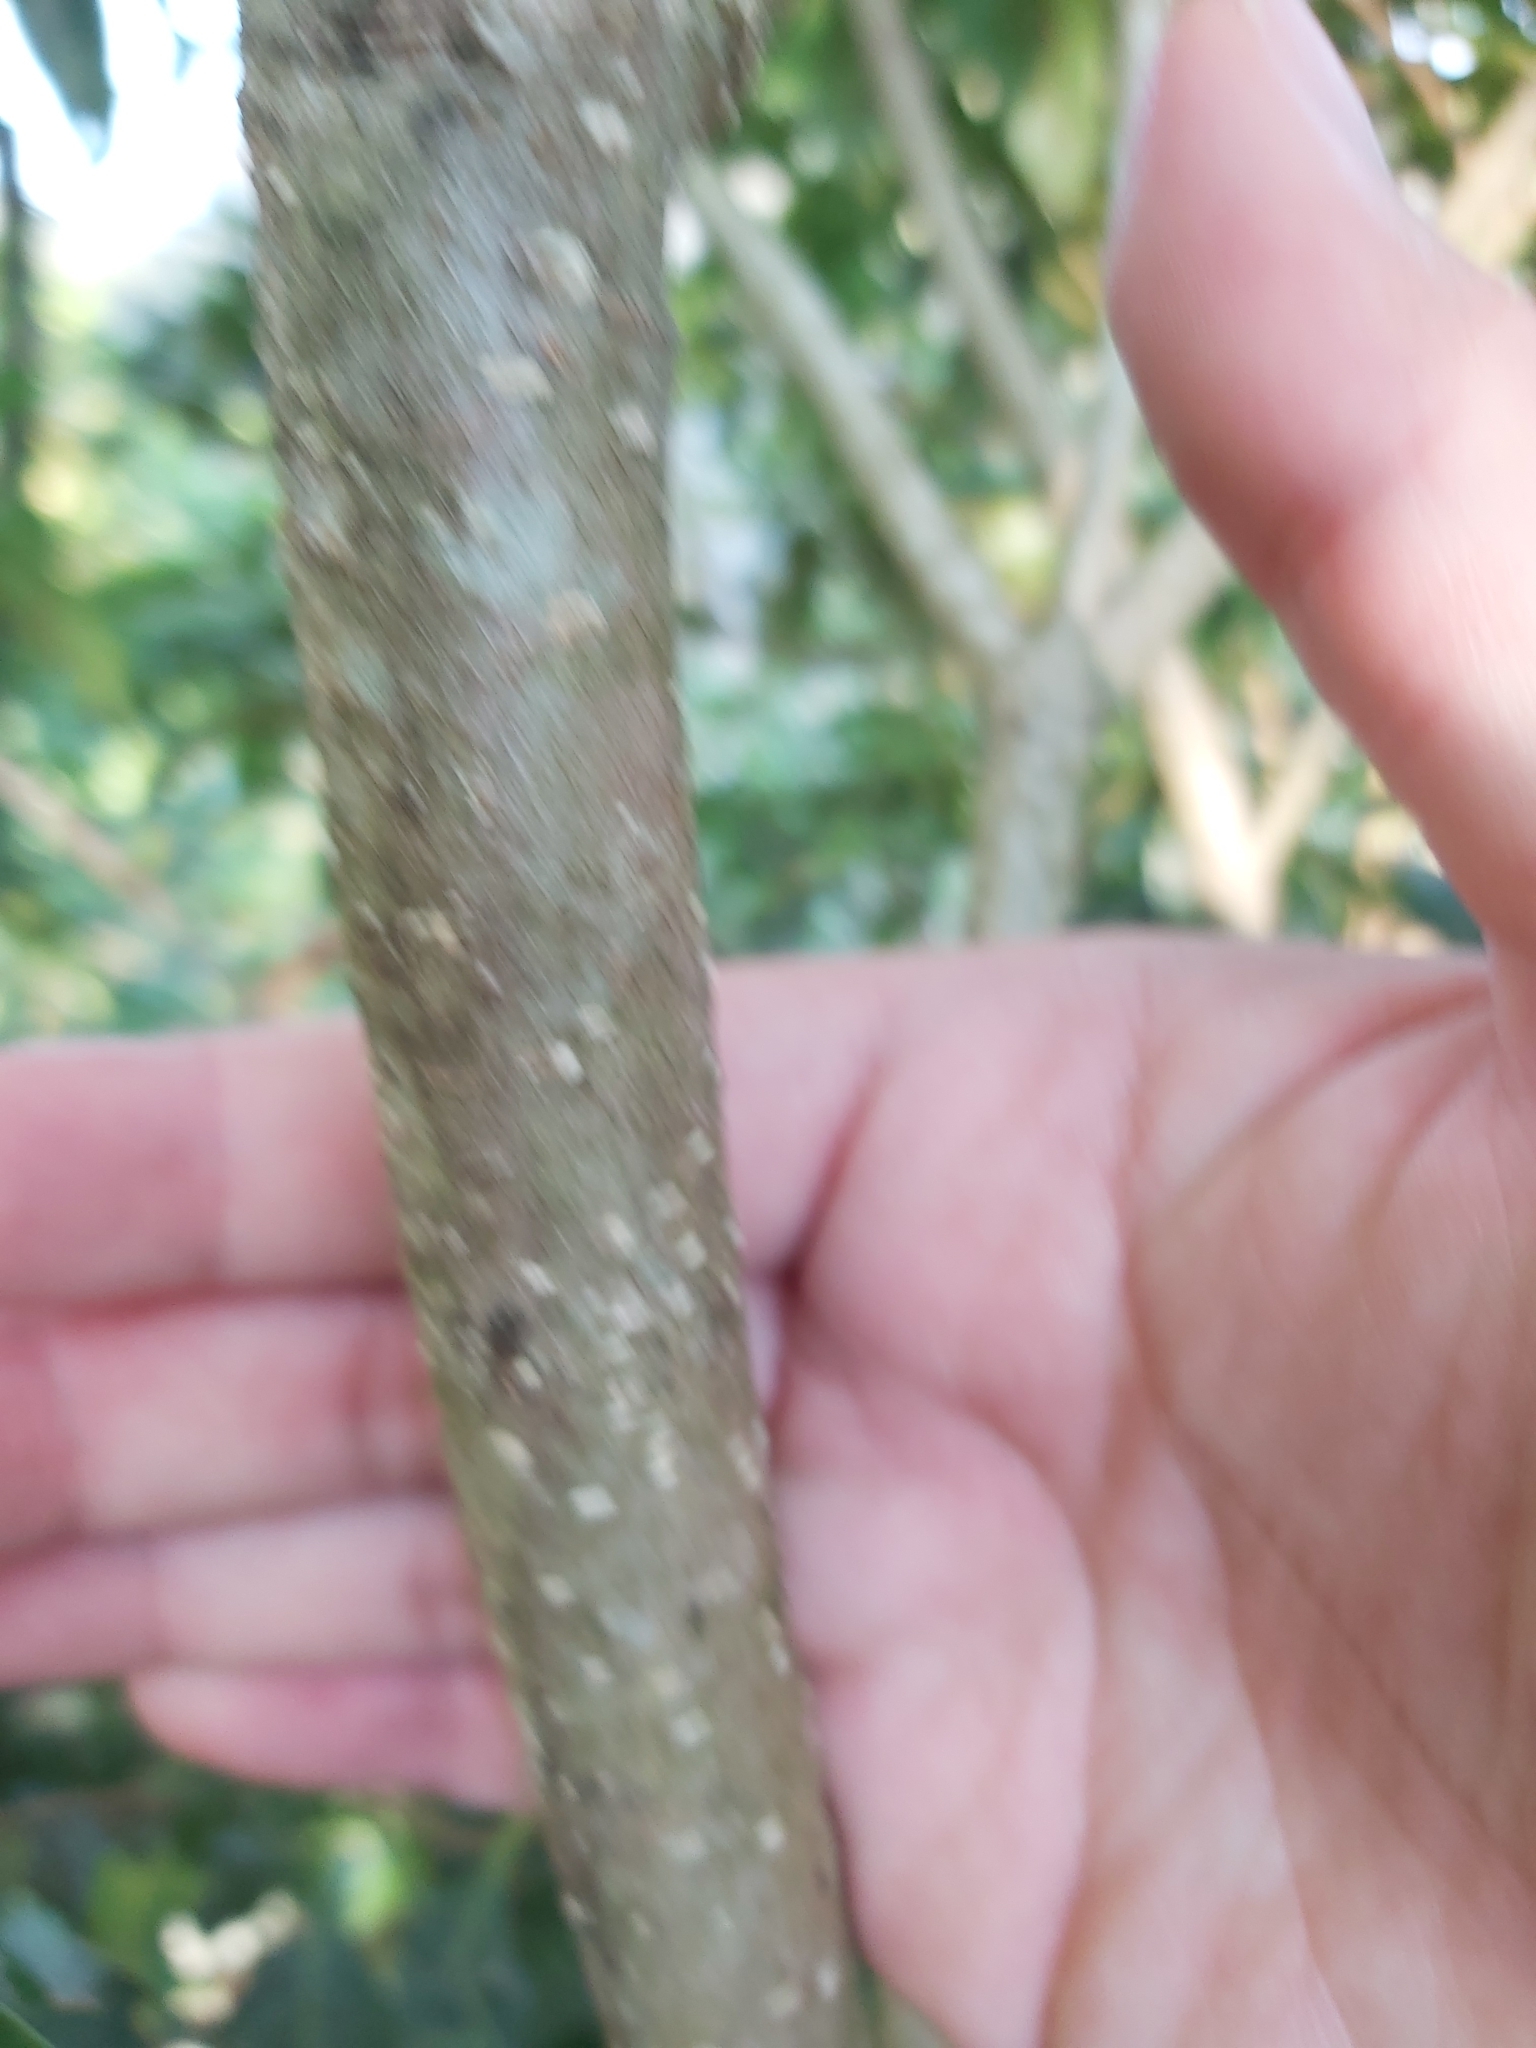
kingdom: Plantae
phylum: Tracheophyta
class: Magnoliopsida
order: Apiales
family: Pittosporaceae
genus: Pittosporum
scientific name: Pittosporum undulatum
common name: Australian cheesewood
